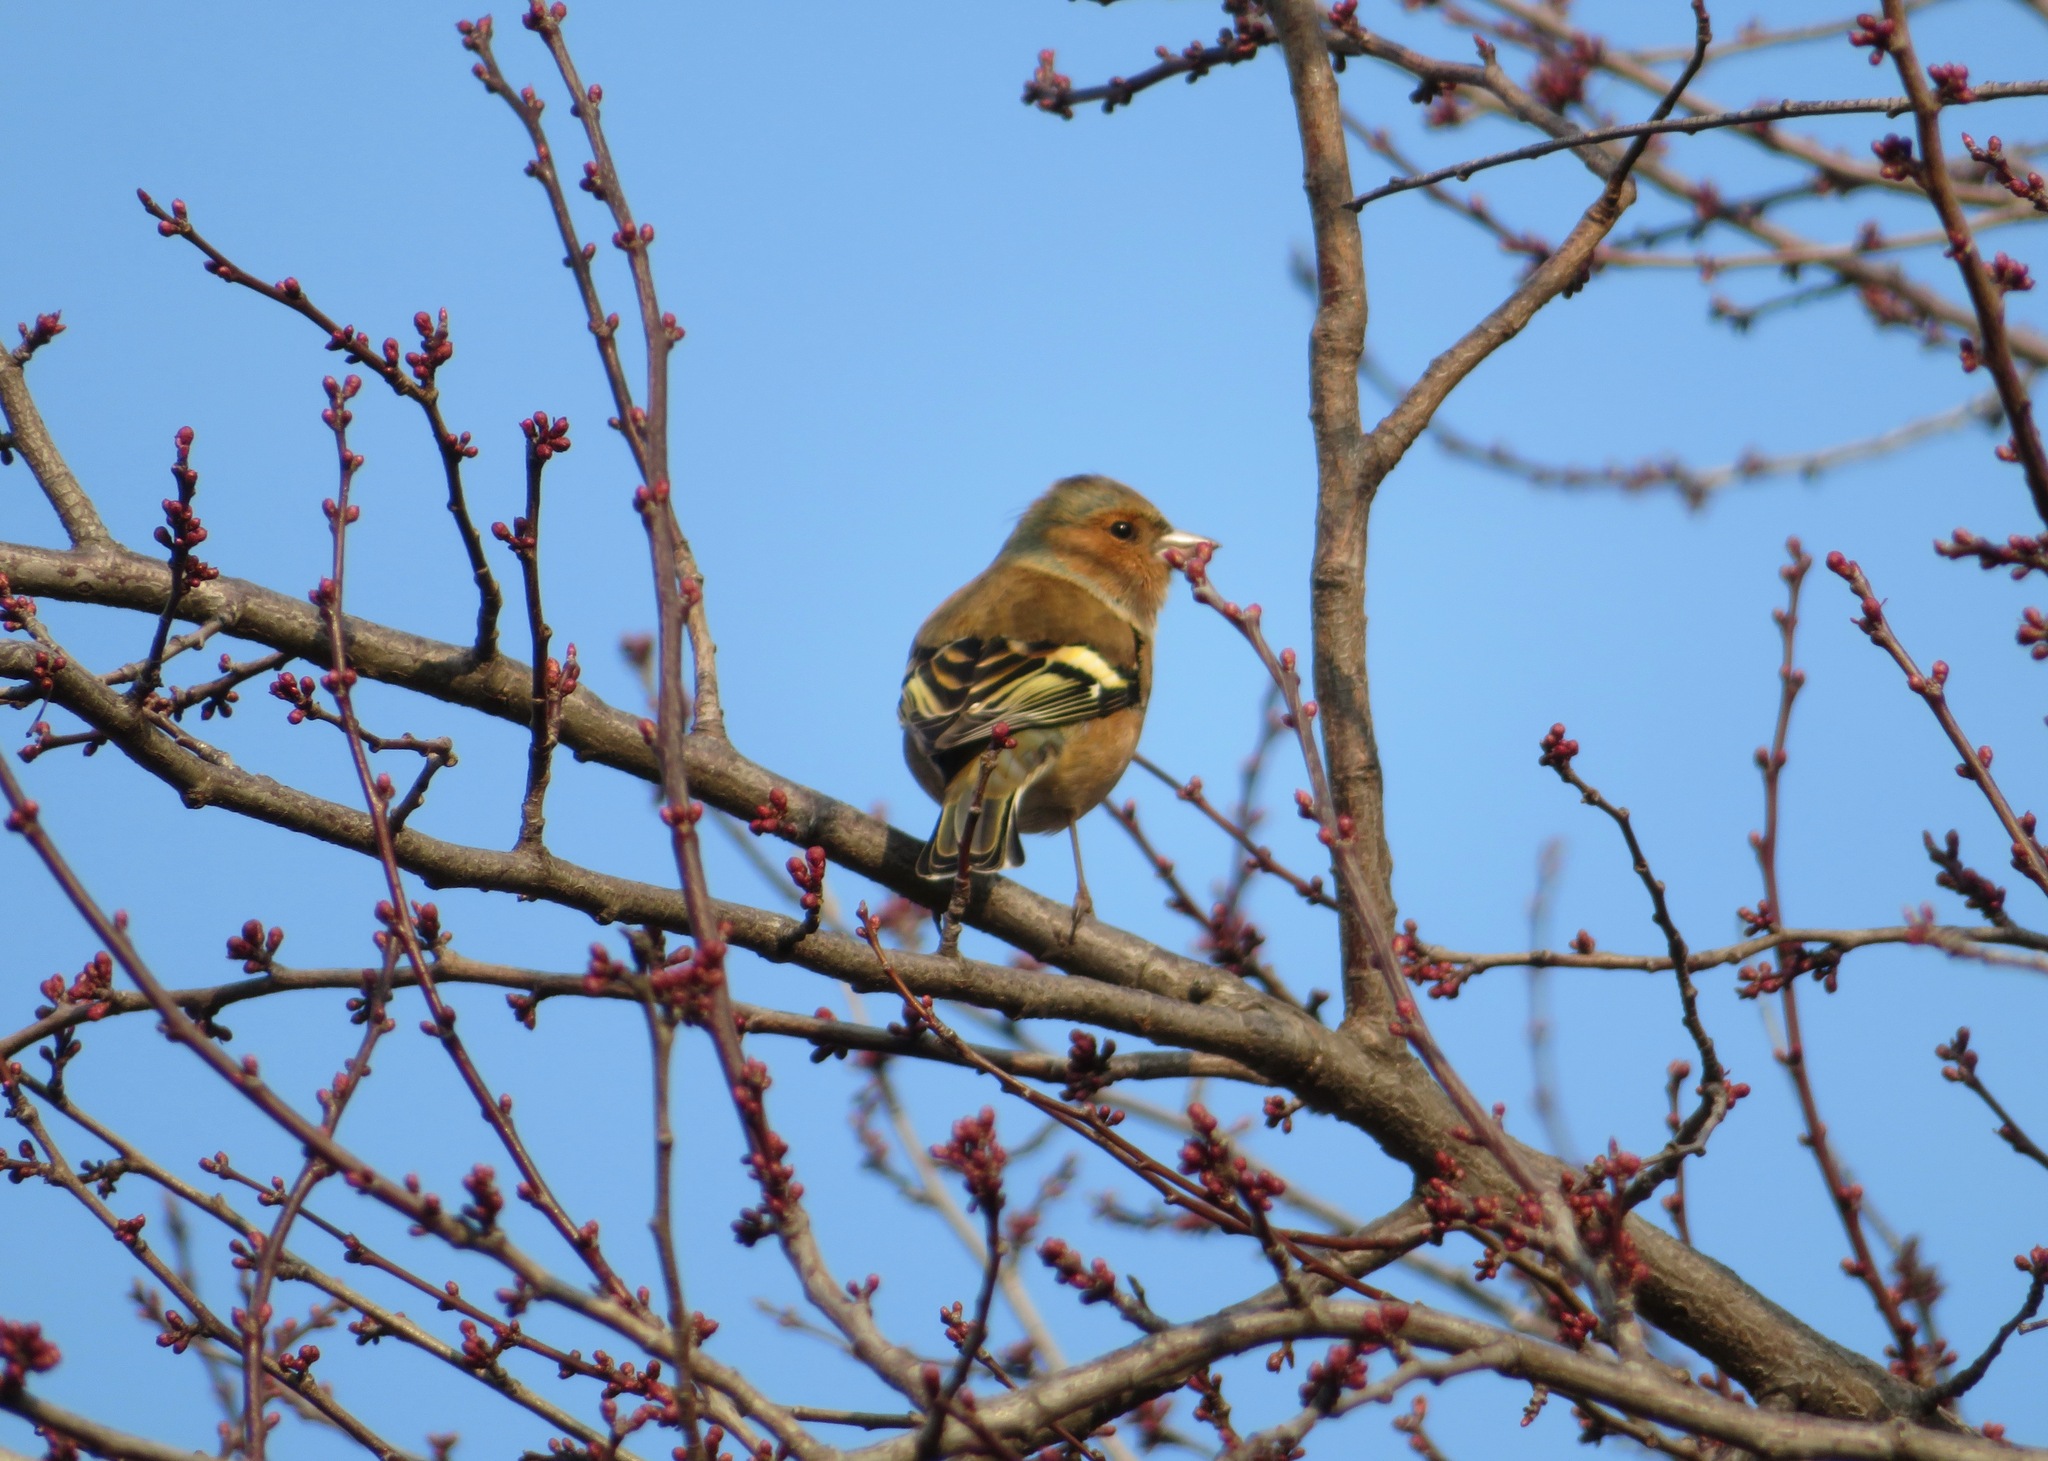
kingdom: Animalia
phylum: Chordata
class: Aves
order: Passeriformes
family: Fringillidae
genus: Fringilla
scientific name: Fringilla coelebs
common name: Common chaffinch
